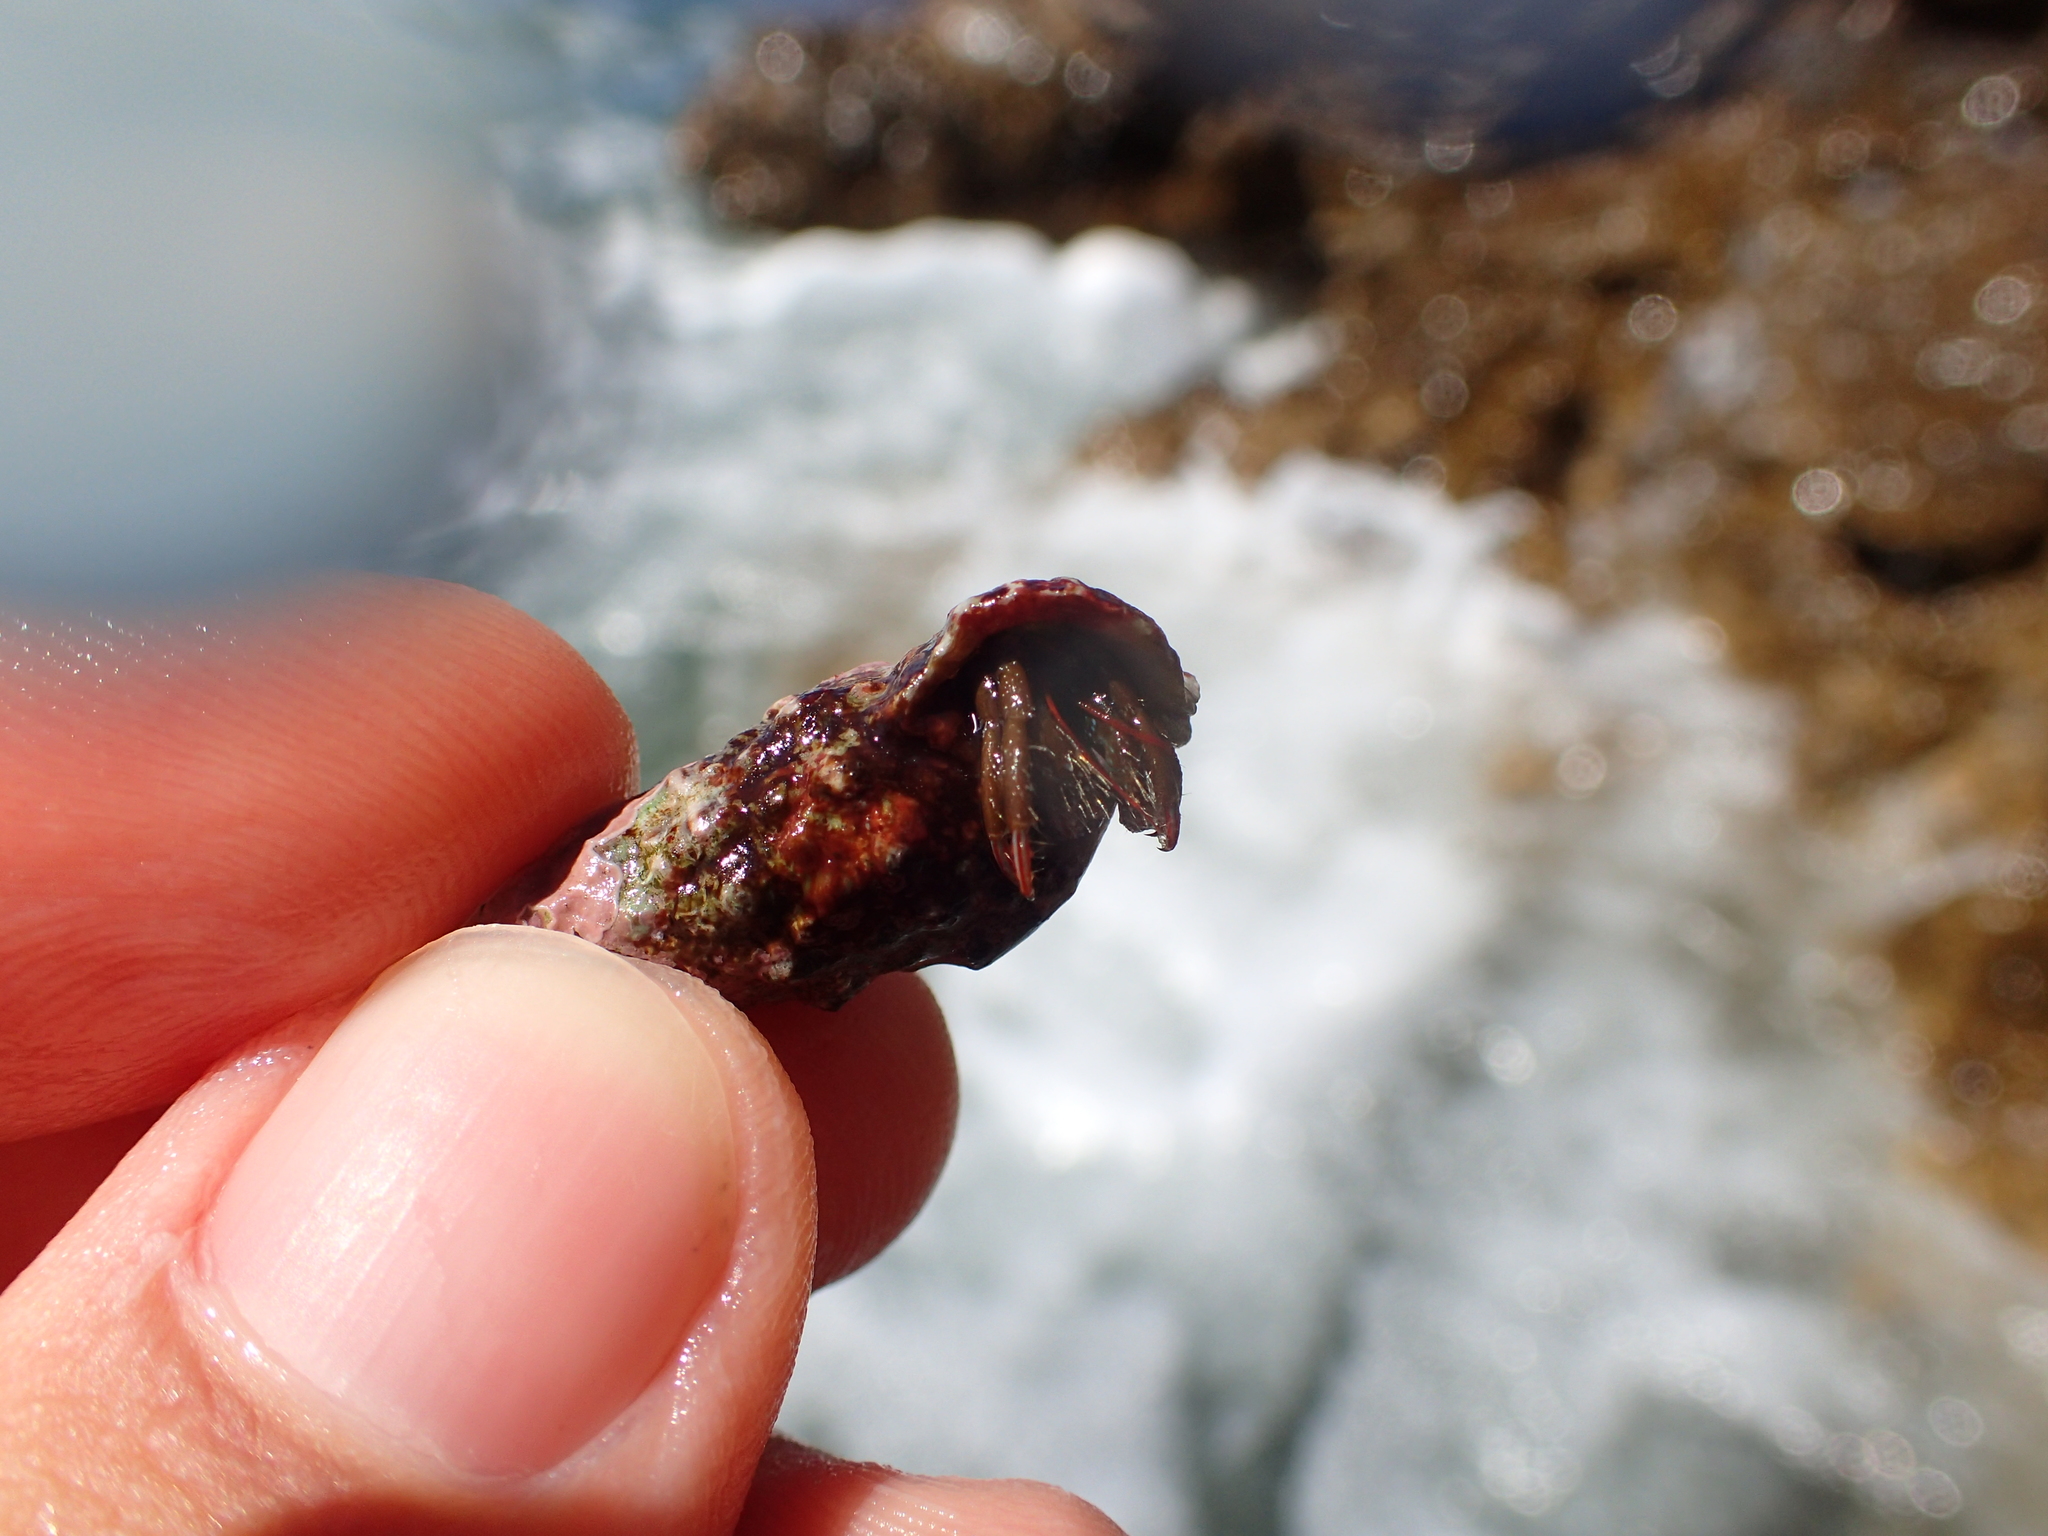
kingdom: Animalia
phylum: Arthropoda
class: Malacostraca
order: Decapoda
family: Diogenidae
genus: Clibanarius
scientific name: Clibanarius erythropus
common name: Hermit crab
